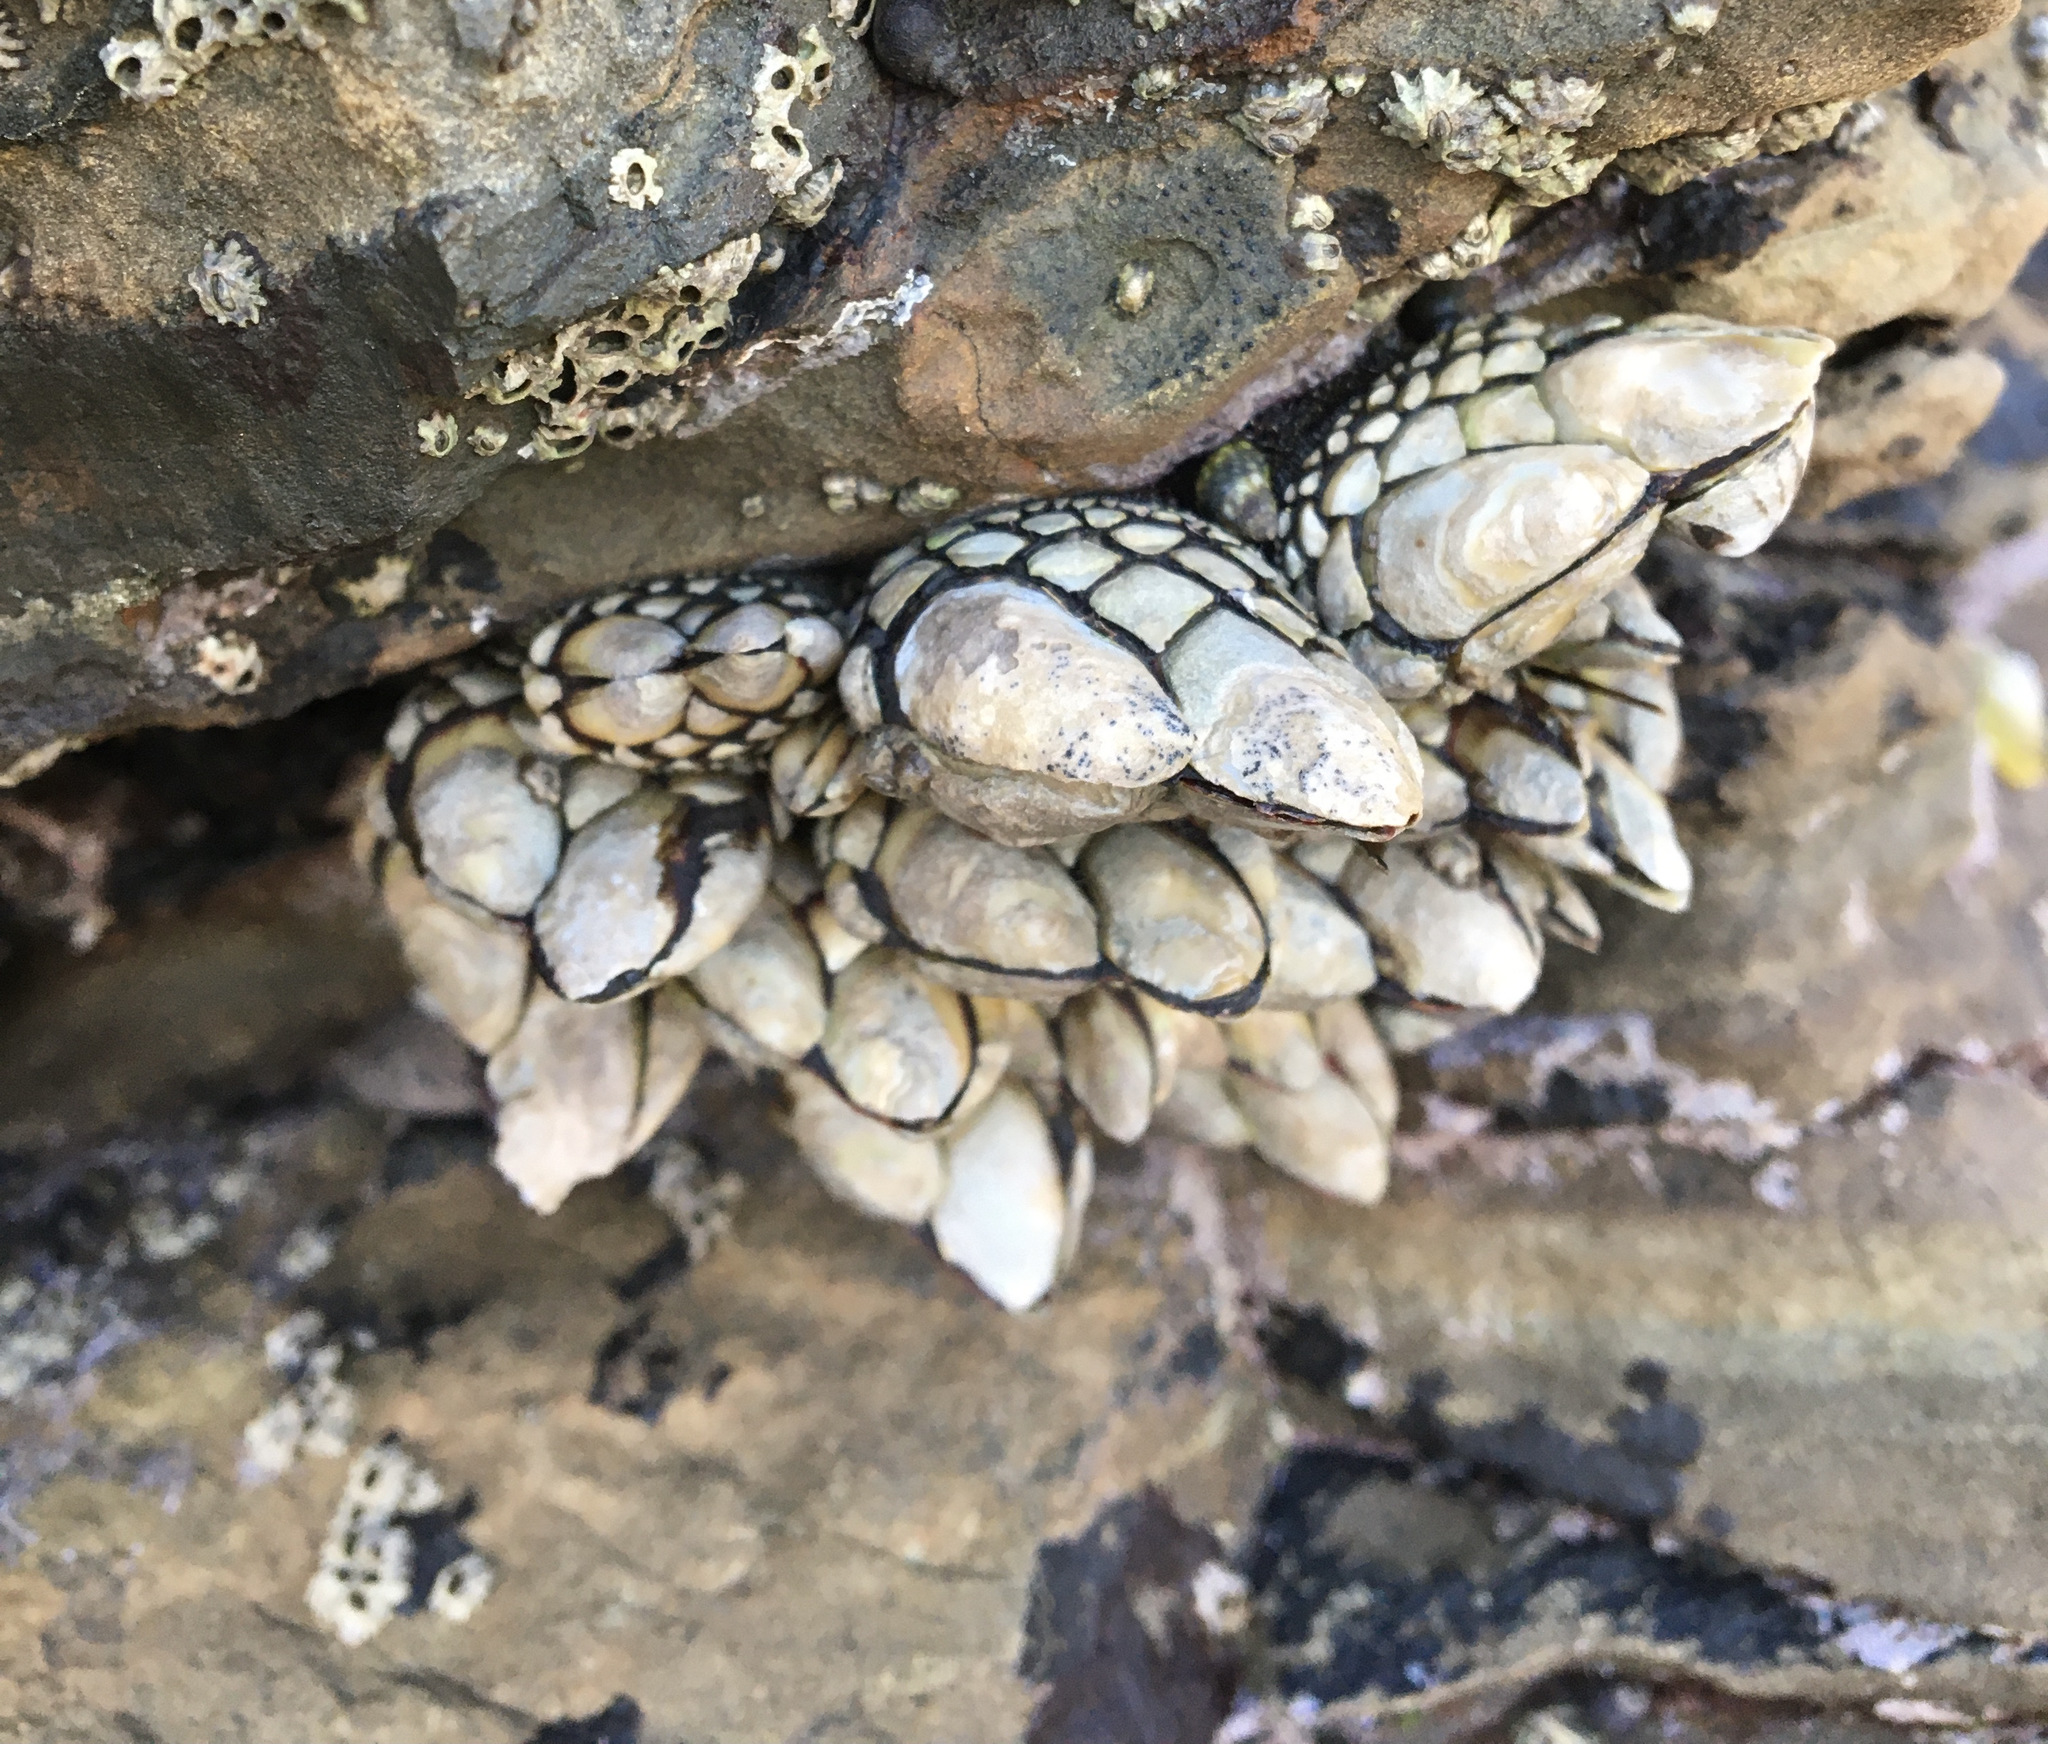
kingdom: Animalia
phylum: Arthropoda
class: Maxillopoda
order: Pedunculata
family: Pollicipedidae
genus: Pollicipes
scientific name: Pollicipes polymerus
